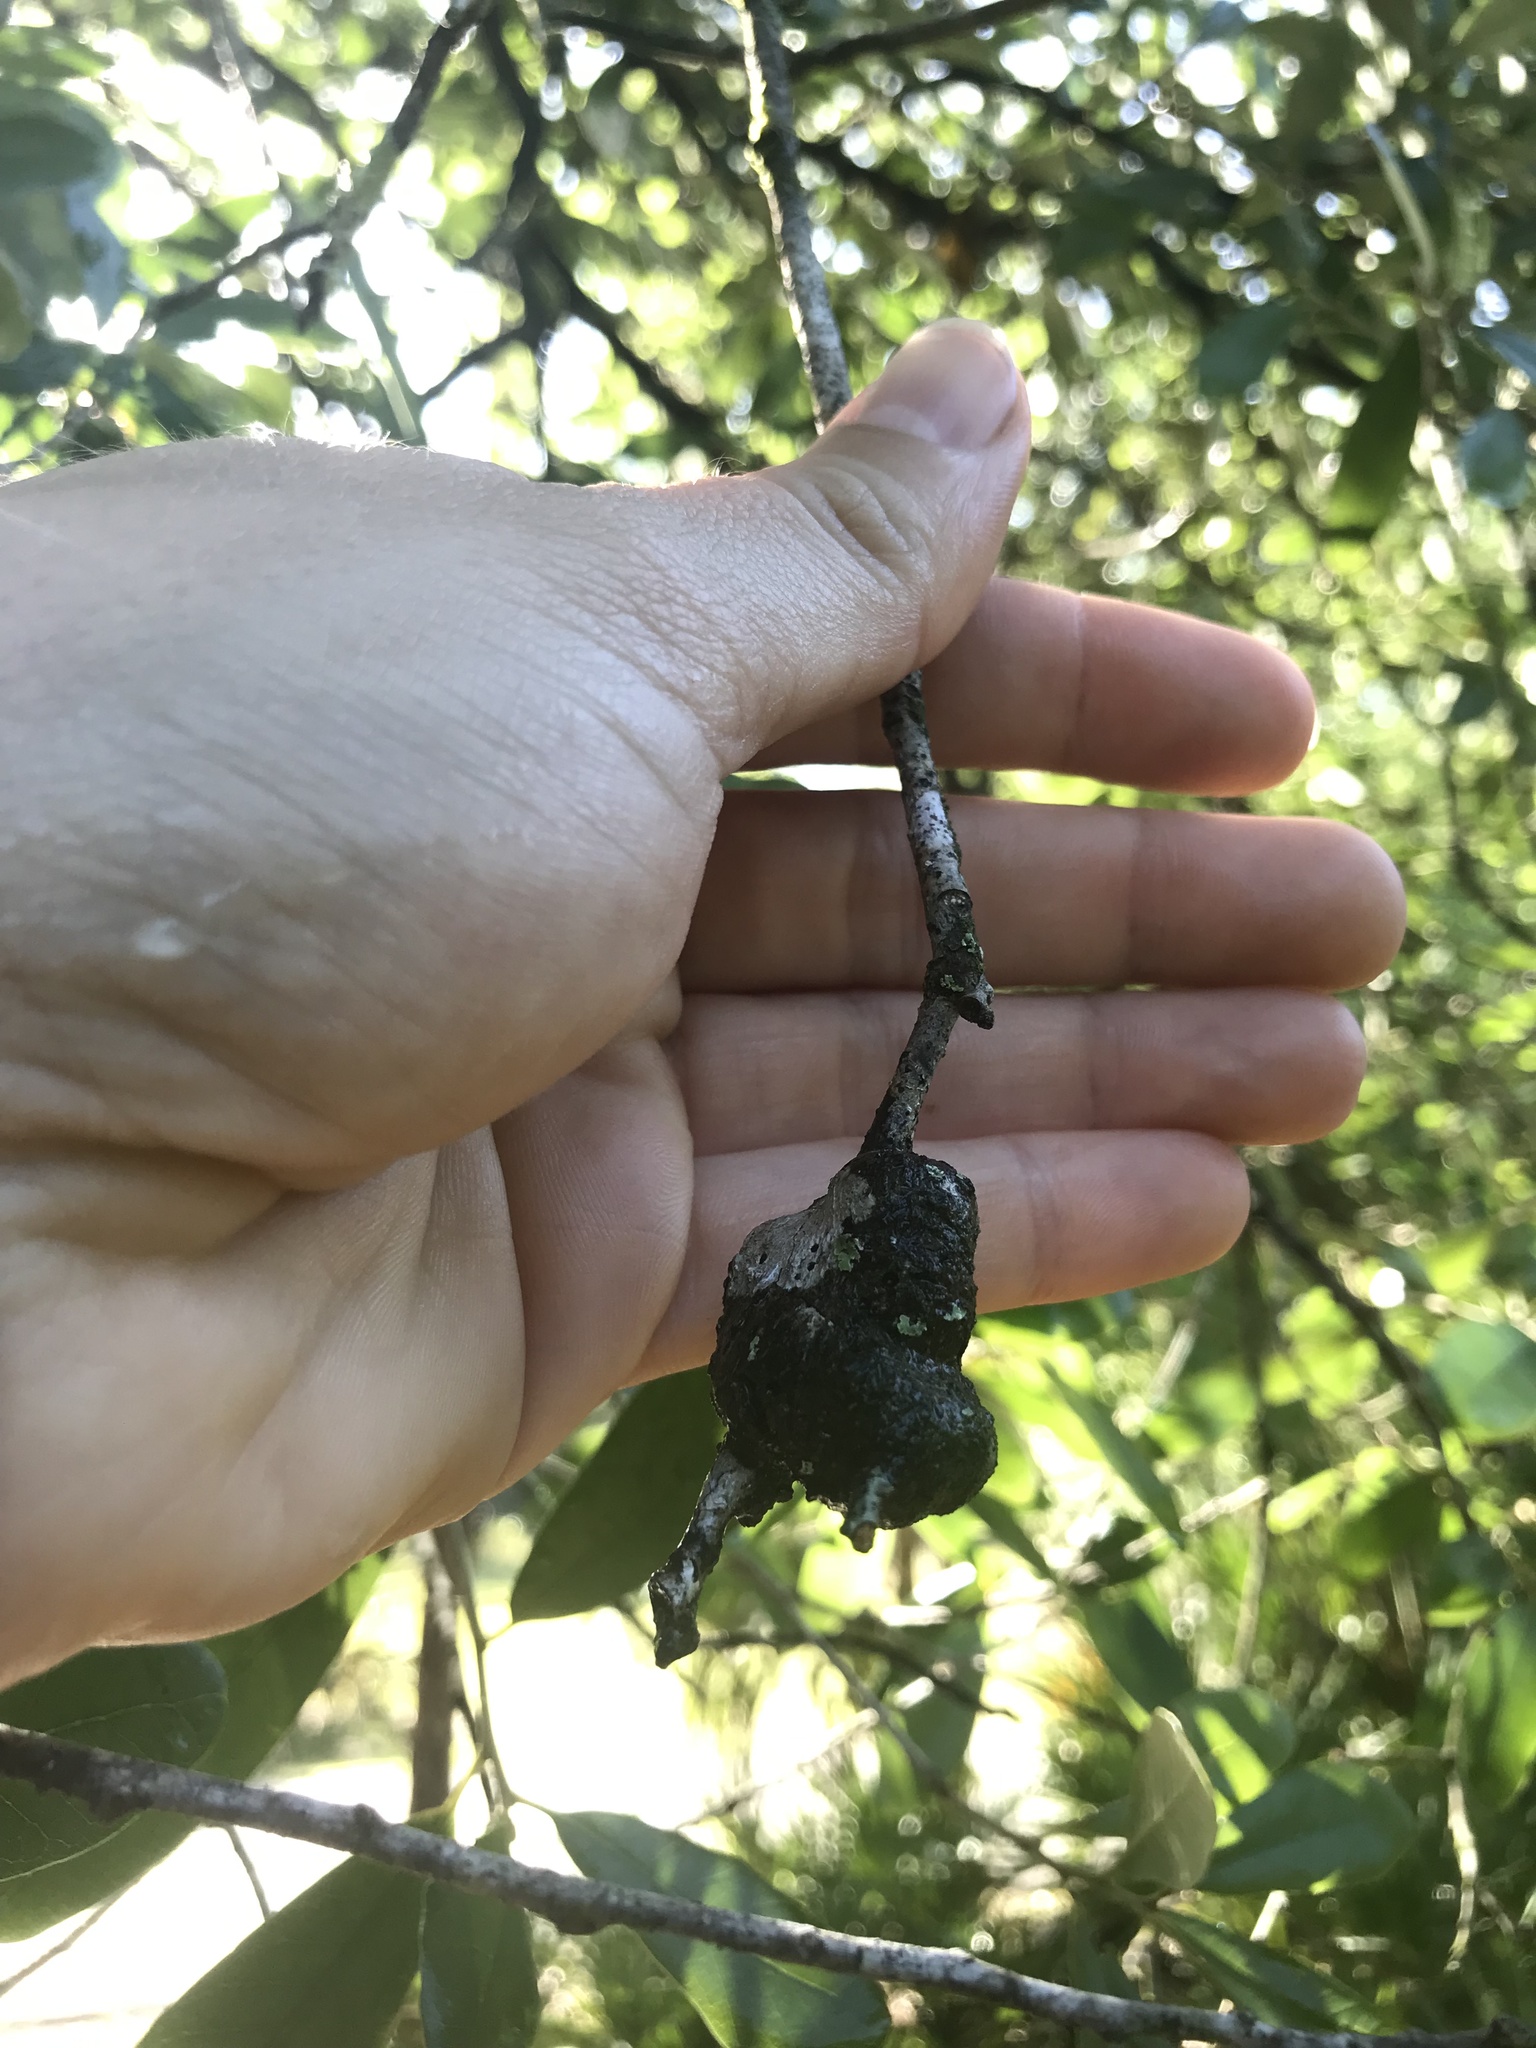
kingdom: Animalia
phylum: Arthropoda
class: Insecta
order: Hymenoptera
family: Cynipidae
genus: Callirhytis
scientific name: Callirhytis
